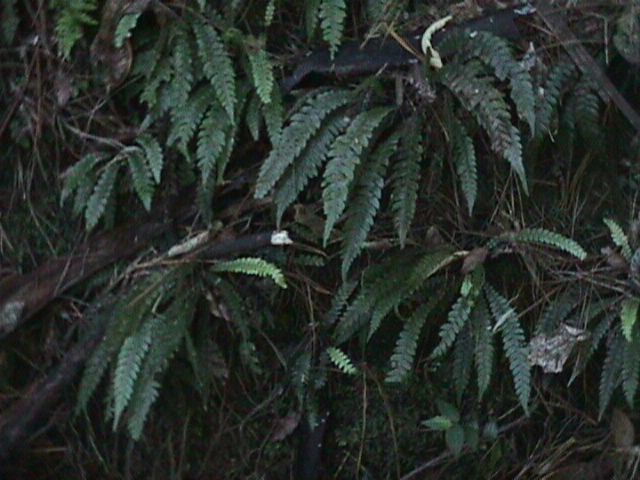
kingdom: Plantae
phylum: Tracheophyta
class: Polypodiopsida
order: Polypodiales
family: Blechnaceae
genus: Austroblechnum
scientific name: Austroblechnum lanceolatum
